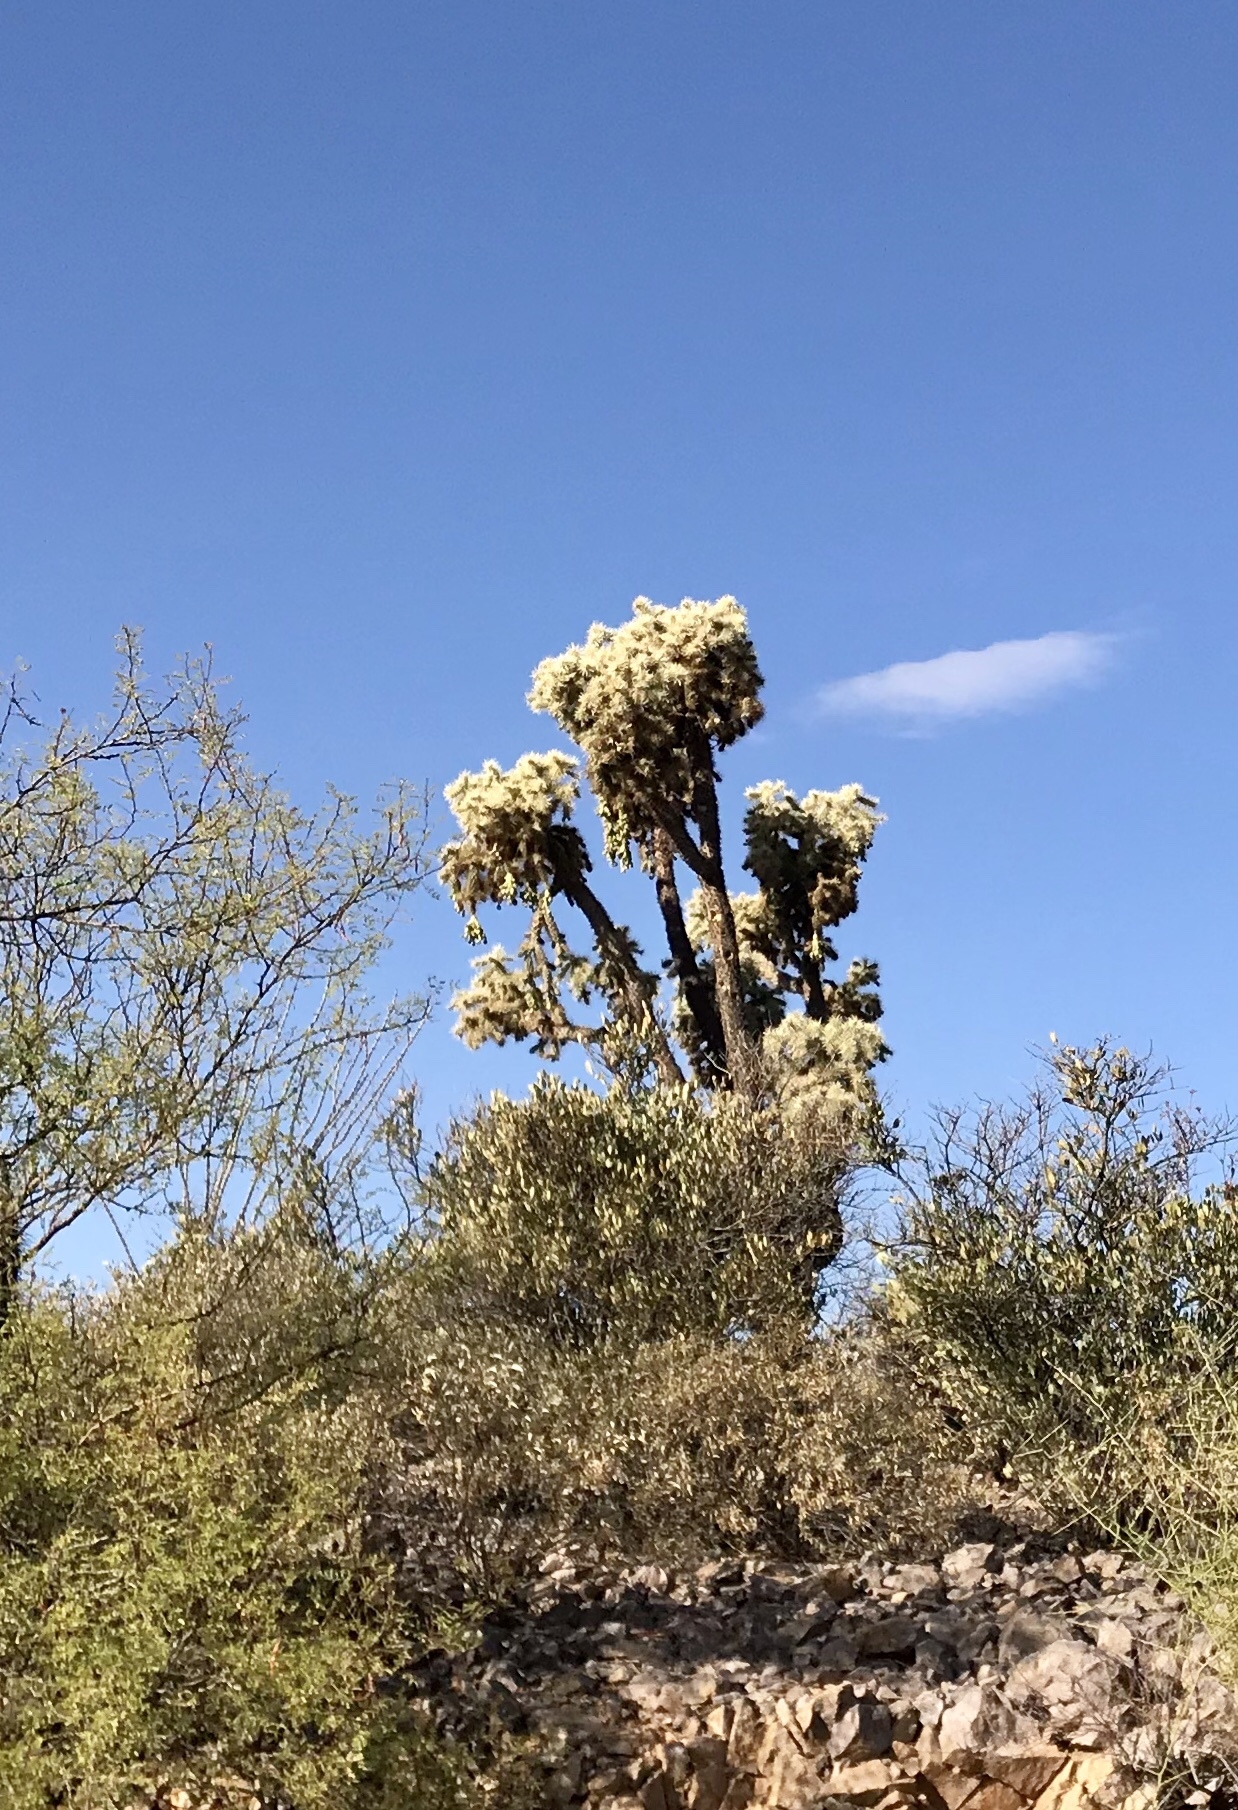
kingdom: Plantae
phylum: Tracheophyta
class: Magnoliopsida
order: Caryophyllales
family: Cactaceae
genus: Cylindropuntia
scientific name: Cylindropuntia fulgida
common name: Jumping cholla
